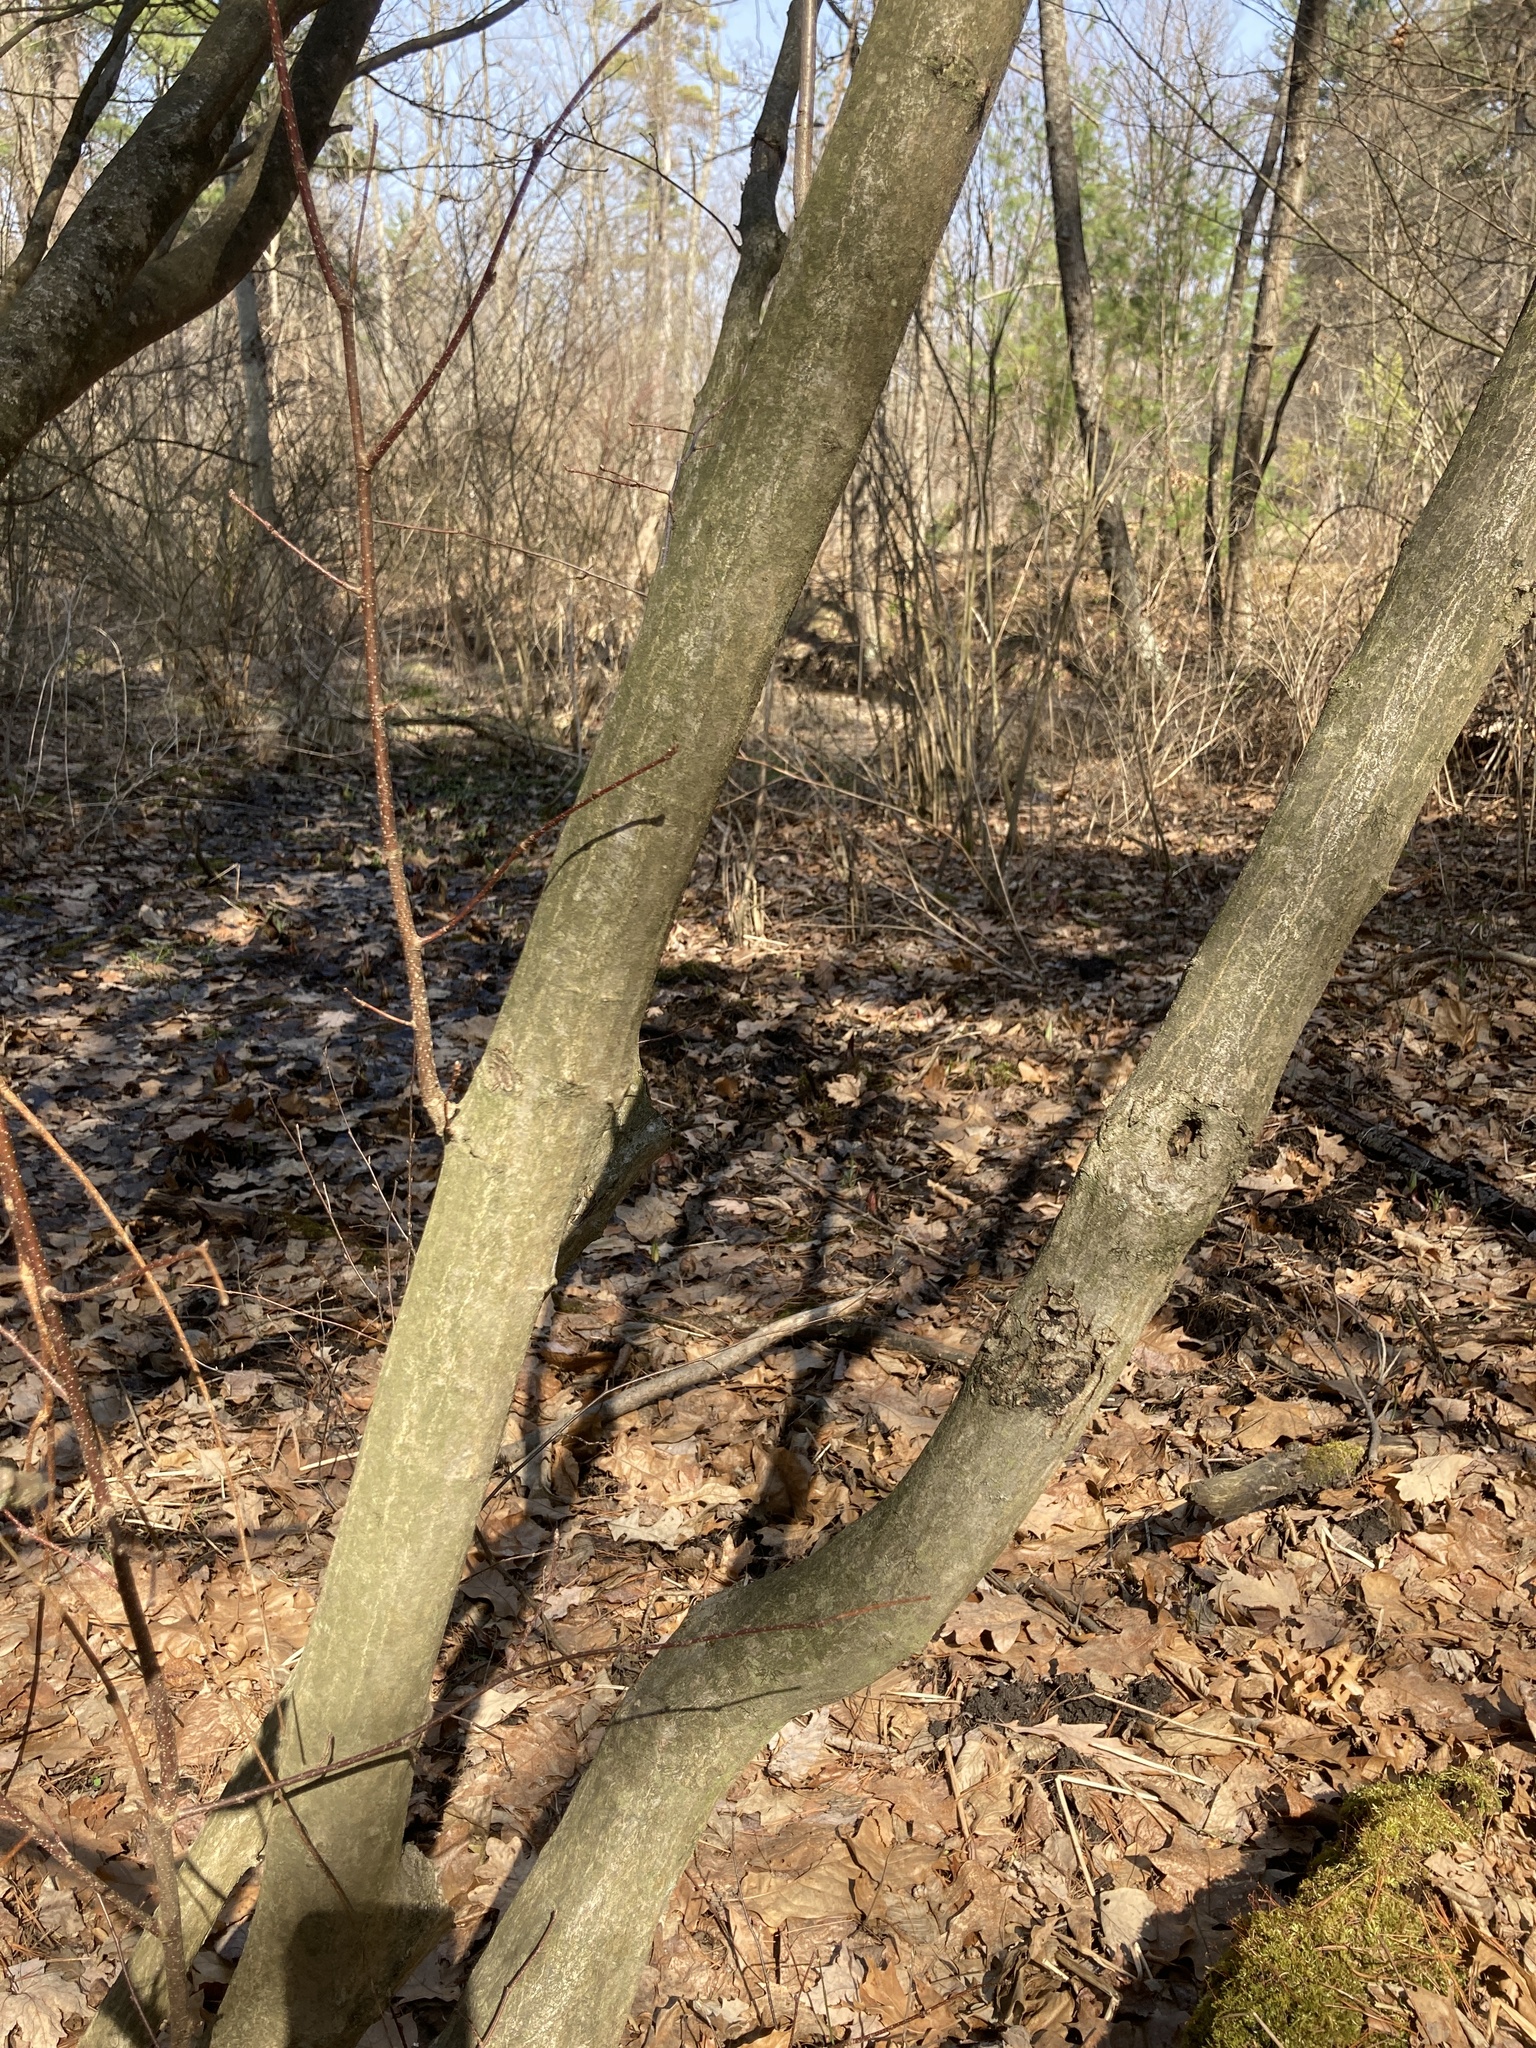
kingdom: Plantae
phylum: Tracheophyta
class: Magnoliopsida
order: Fagales
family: Betulaceae
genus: Carpinus
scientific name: Carpinus caroliniana
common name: American hornbeam
